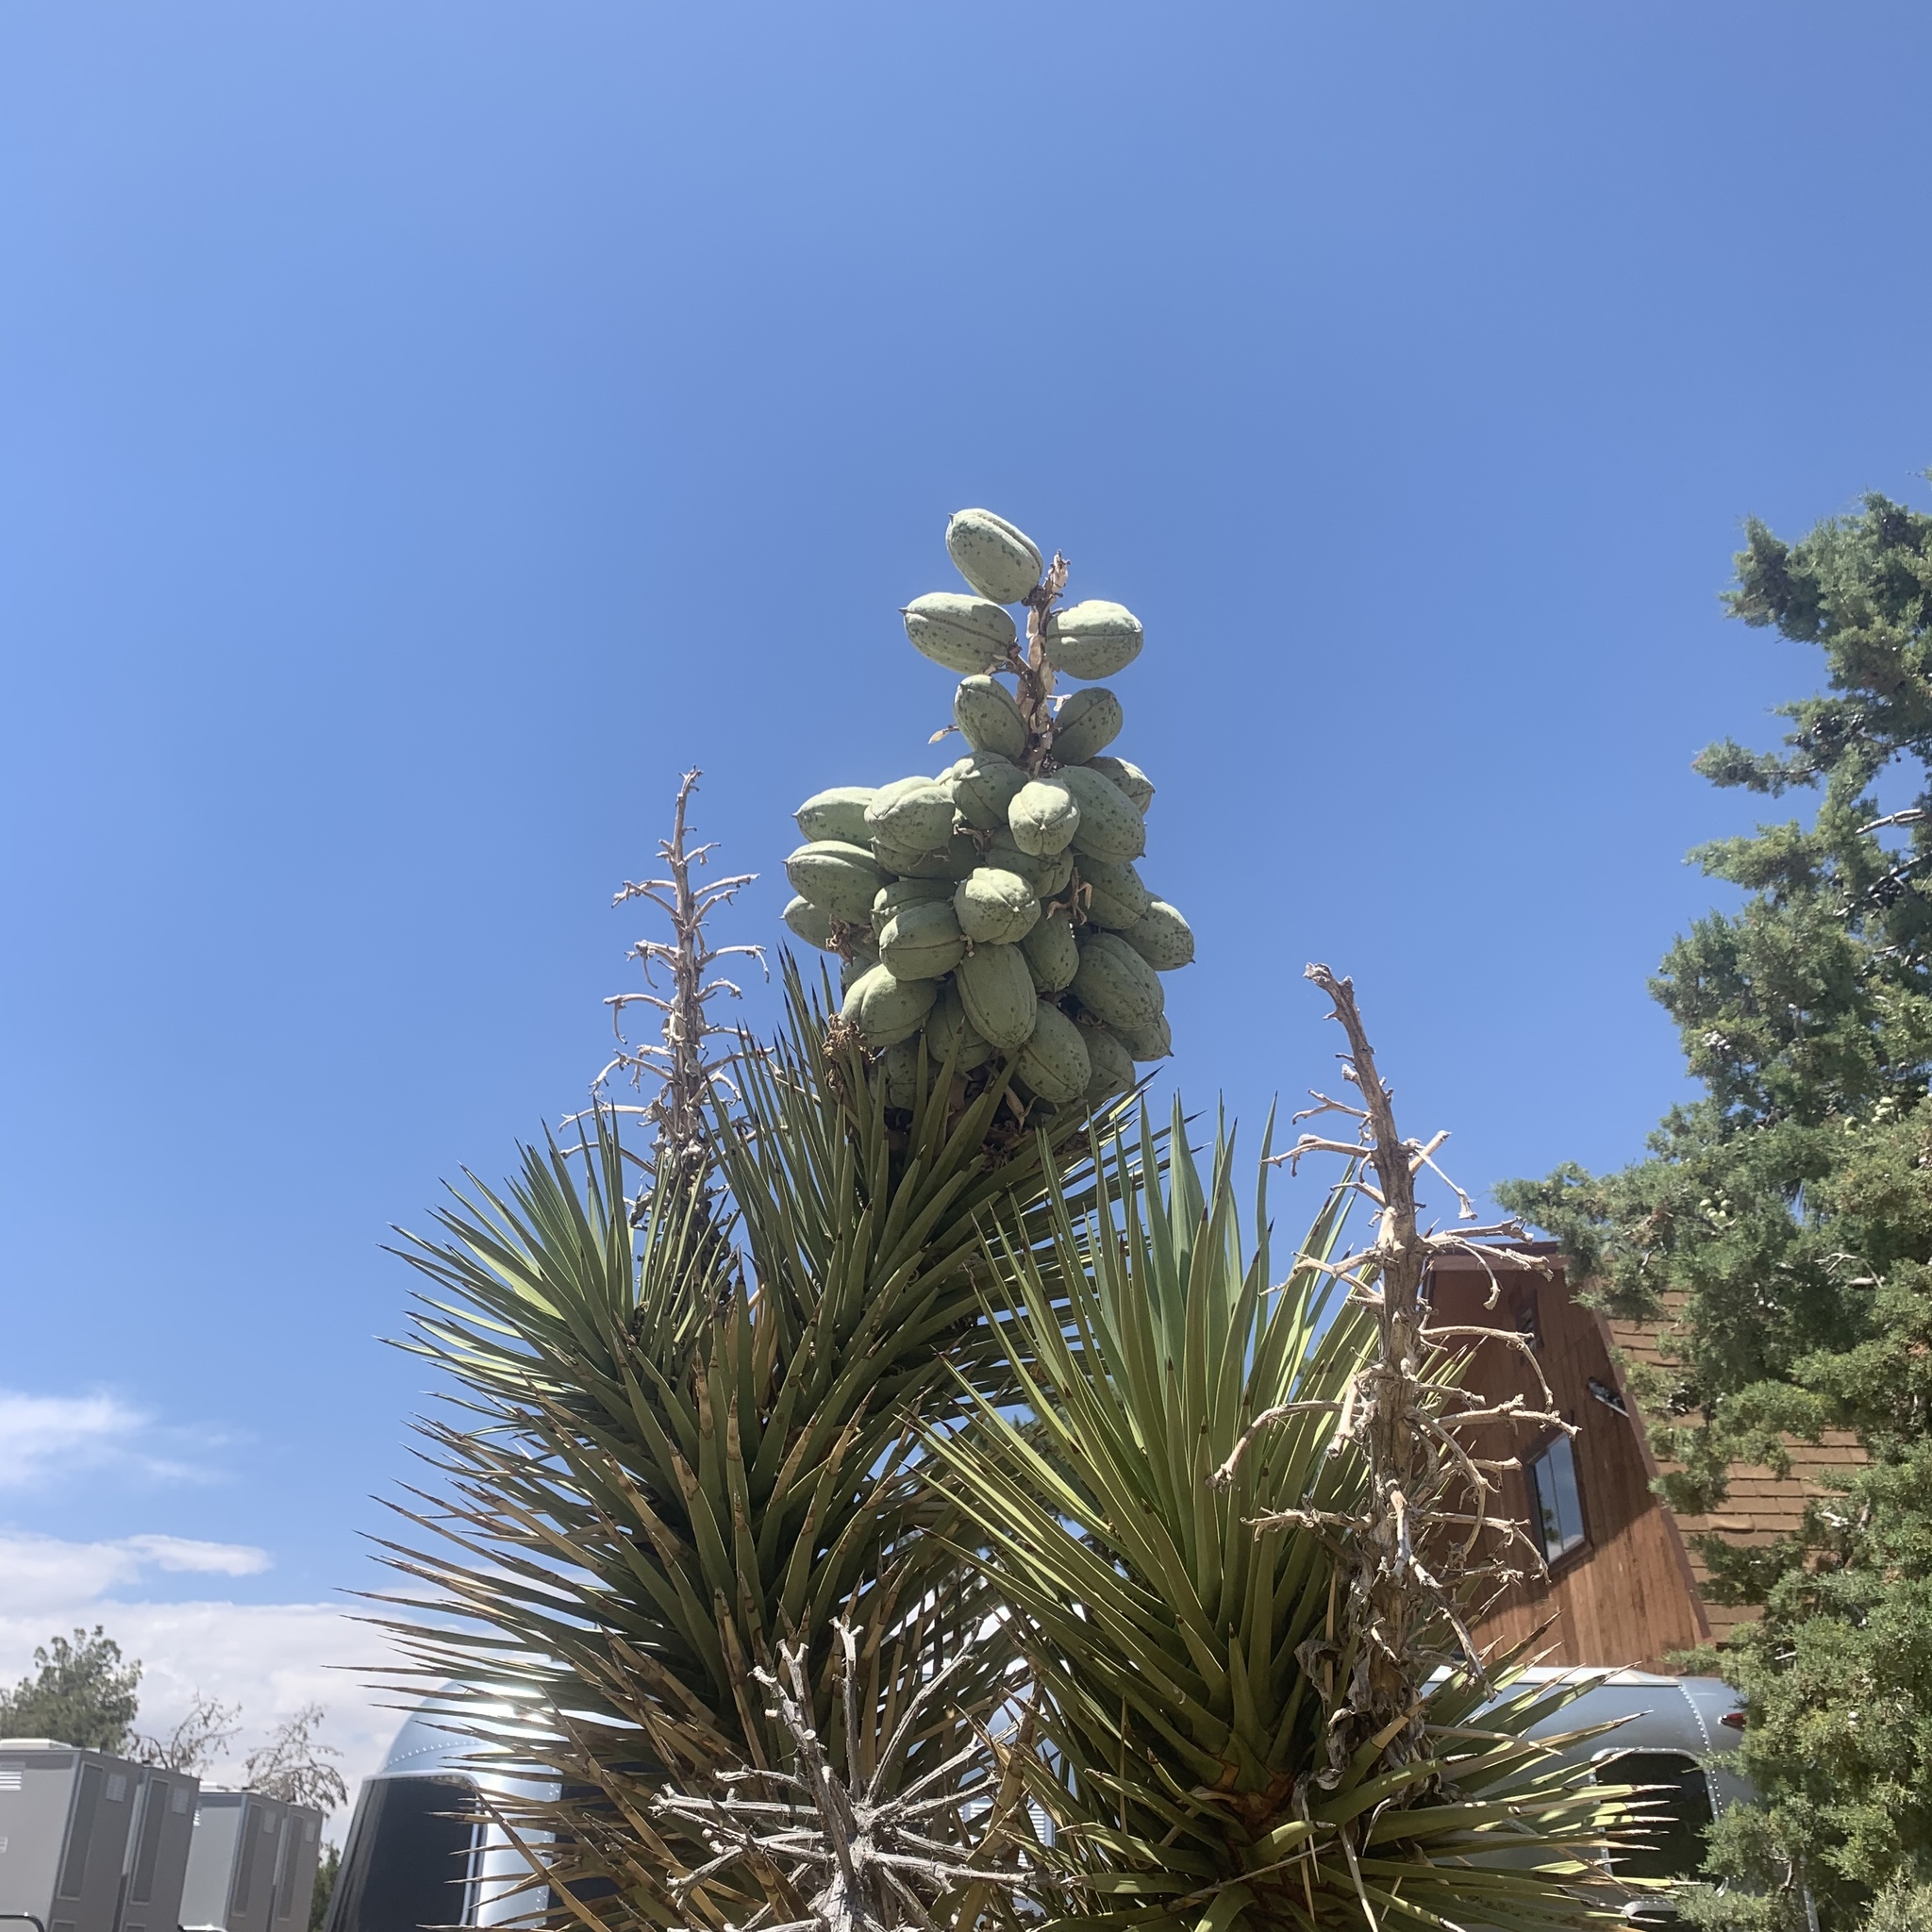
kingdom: Plantae
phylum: Tracheophyta
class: Liliopsida
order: Asparagales
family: Asparagaceae
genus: Yucca
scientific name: Yucca brevifolia
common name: Joshua tree
